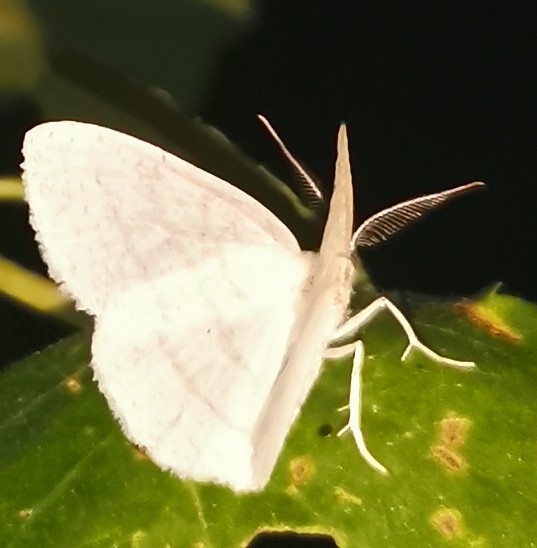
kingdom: Animalia
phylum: Arthropoda
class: Insecta
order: Lepidoptera
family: Geometridae
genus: Cabera
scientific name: Cabera pusaria
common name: Common white wave
